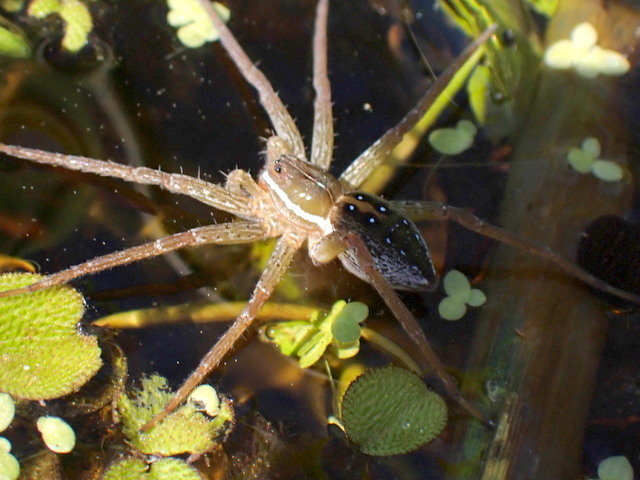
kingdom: Animalia
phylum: Arthropoda
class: Arachnida
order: Araneae
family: Pisauridae
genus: Dolomedes
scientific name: Dolomedes triton
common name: Six-spotted fishing spider
